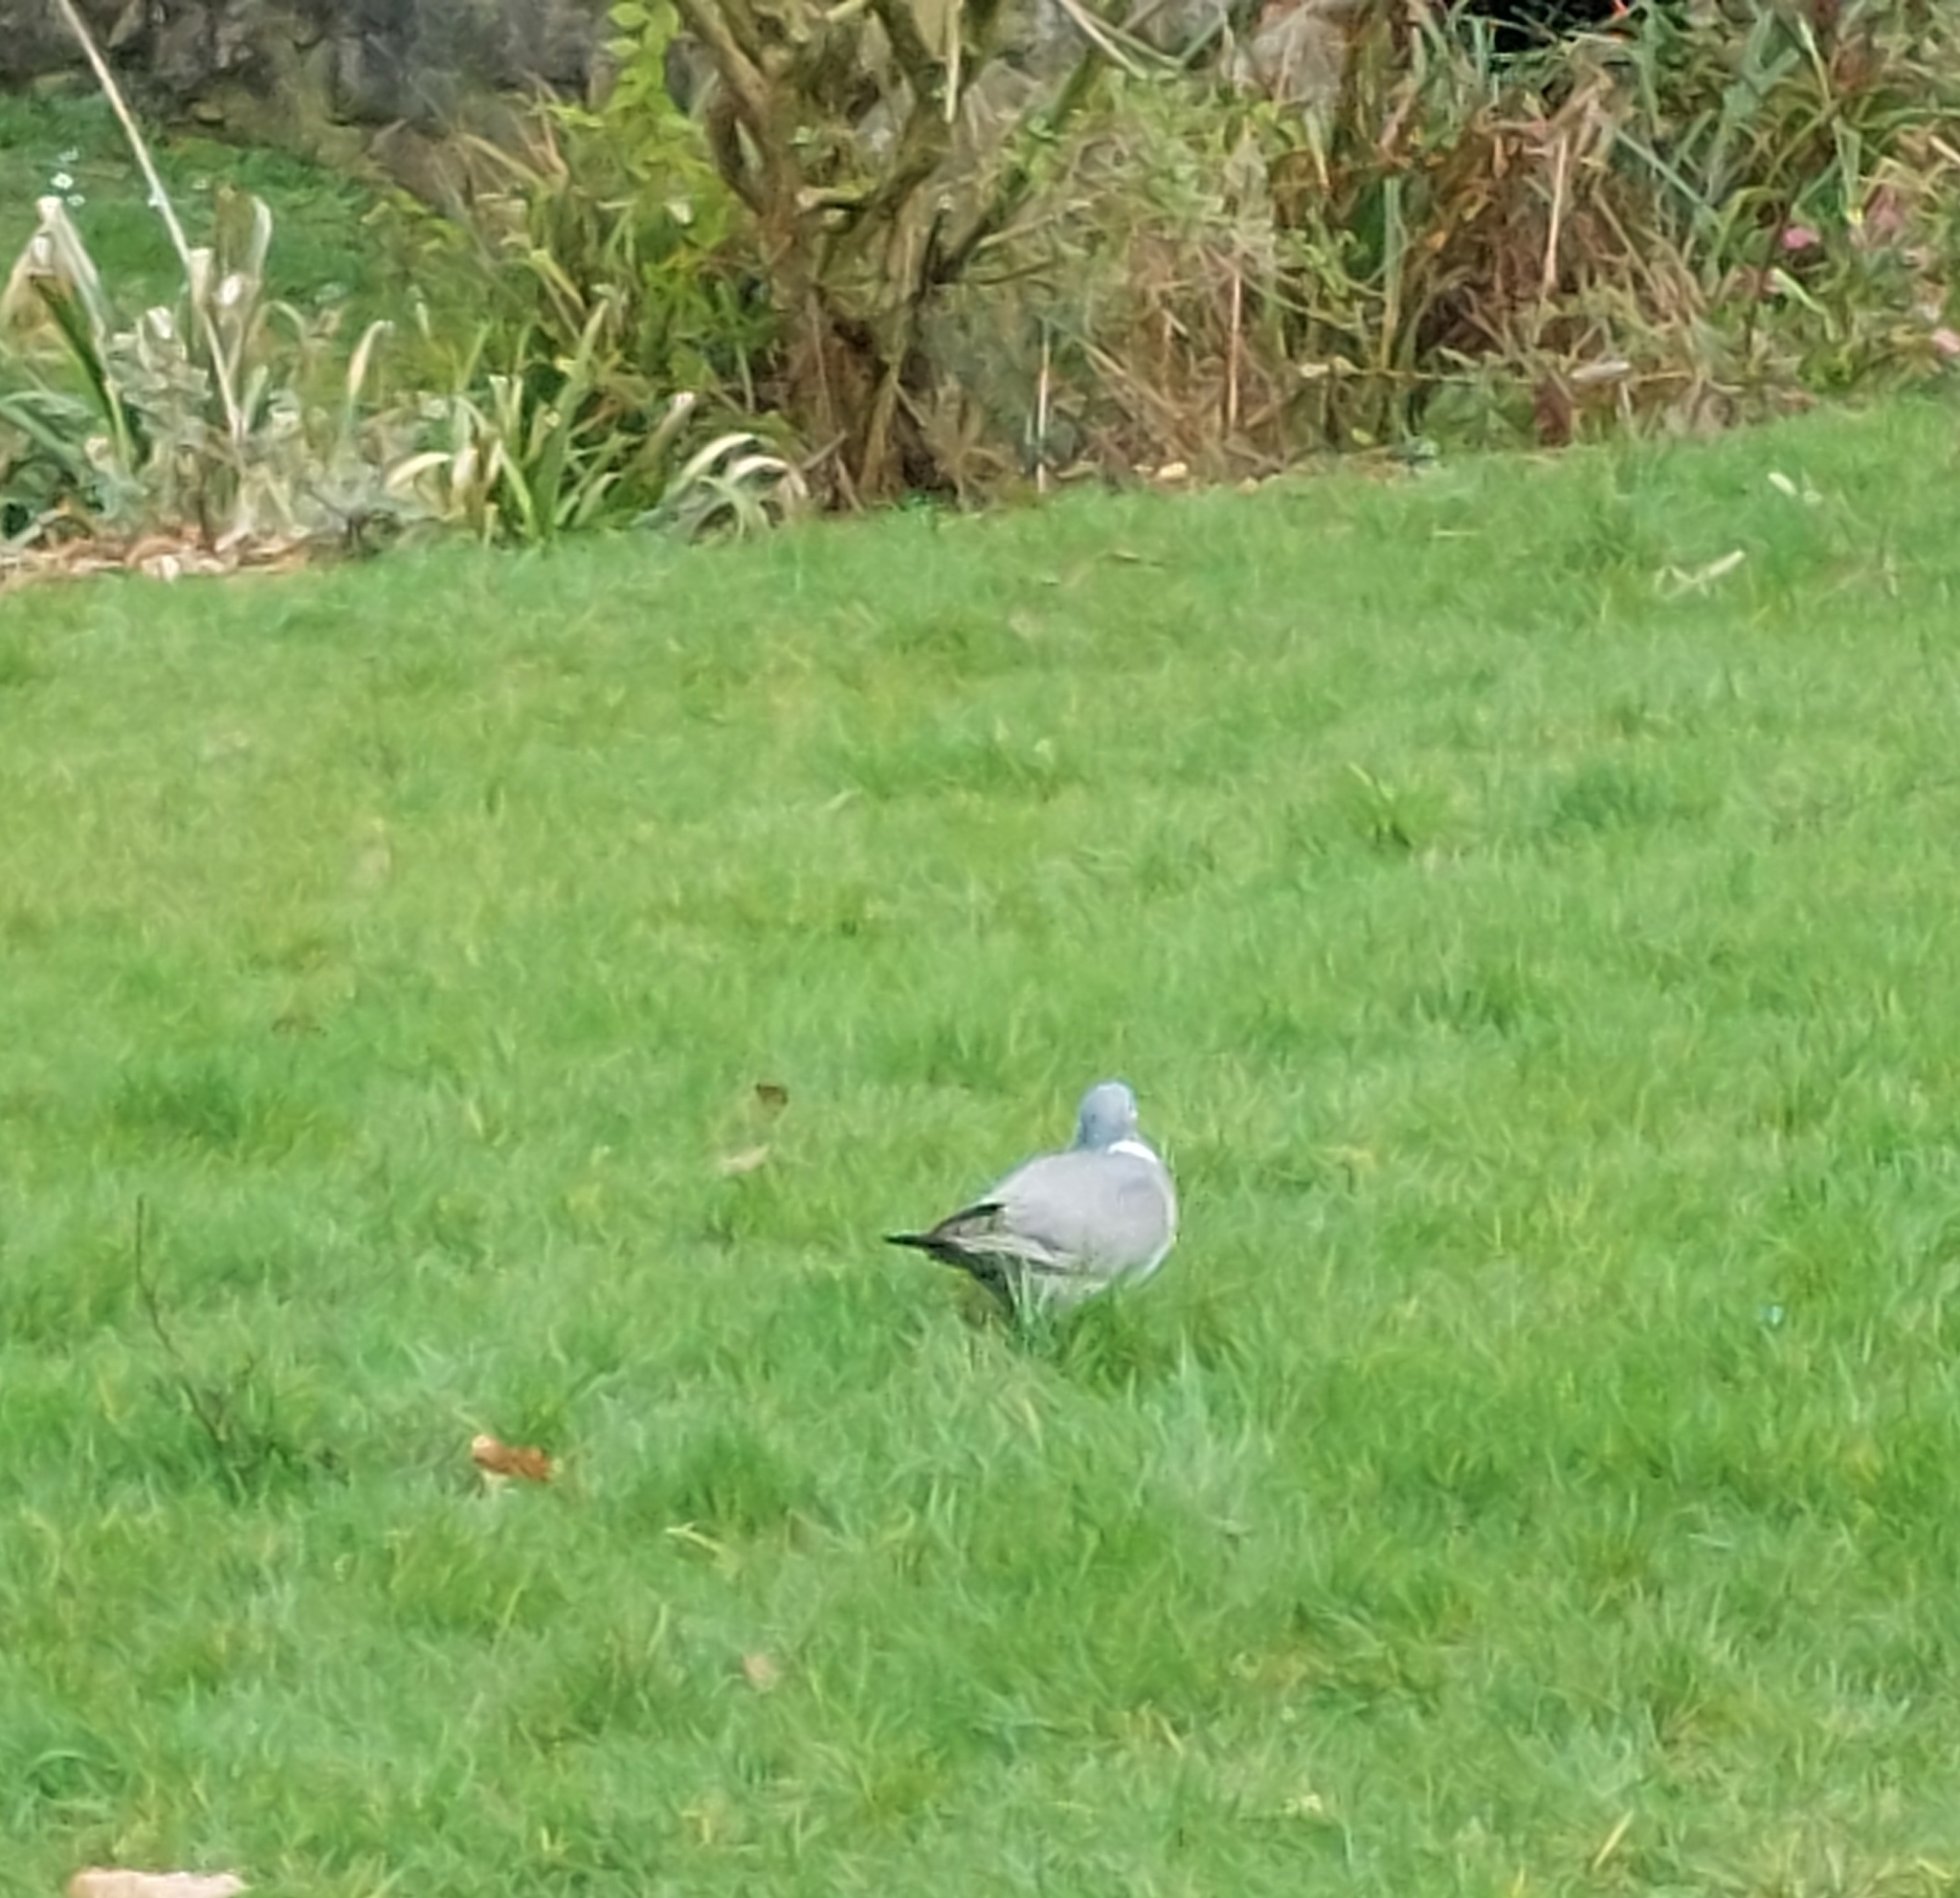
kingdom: Animalia
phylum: Chordata
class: Aves
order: Columbiformes
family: Columbidae
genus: Columba
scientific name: Columba palumbus
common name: Common wood pigeon
